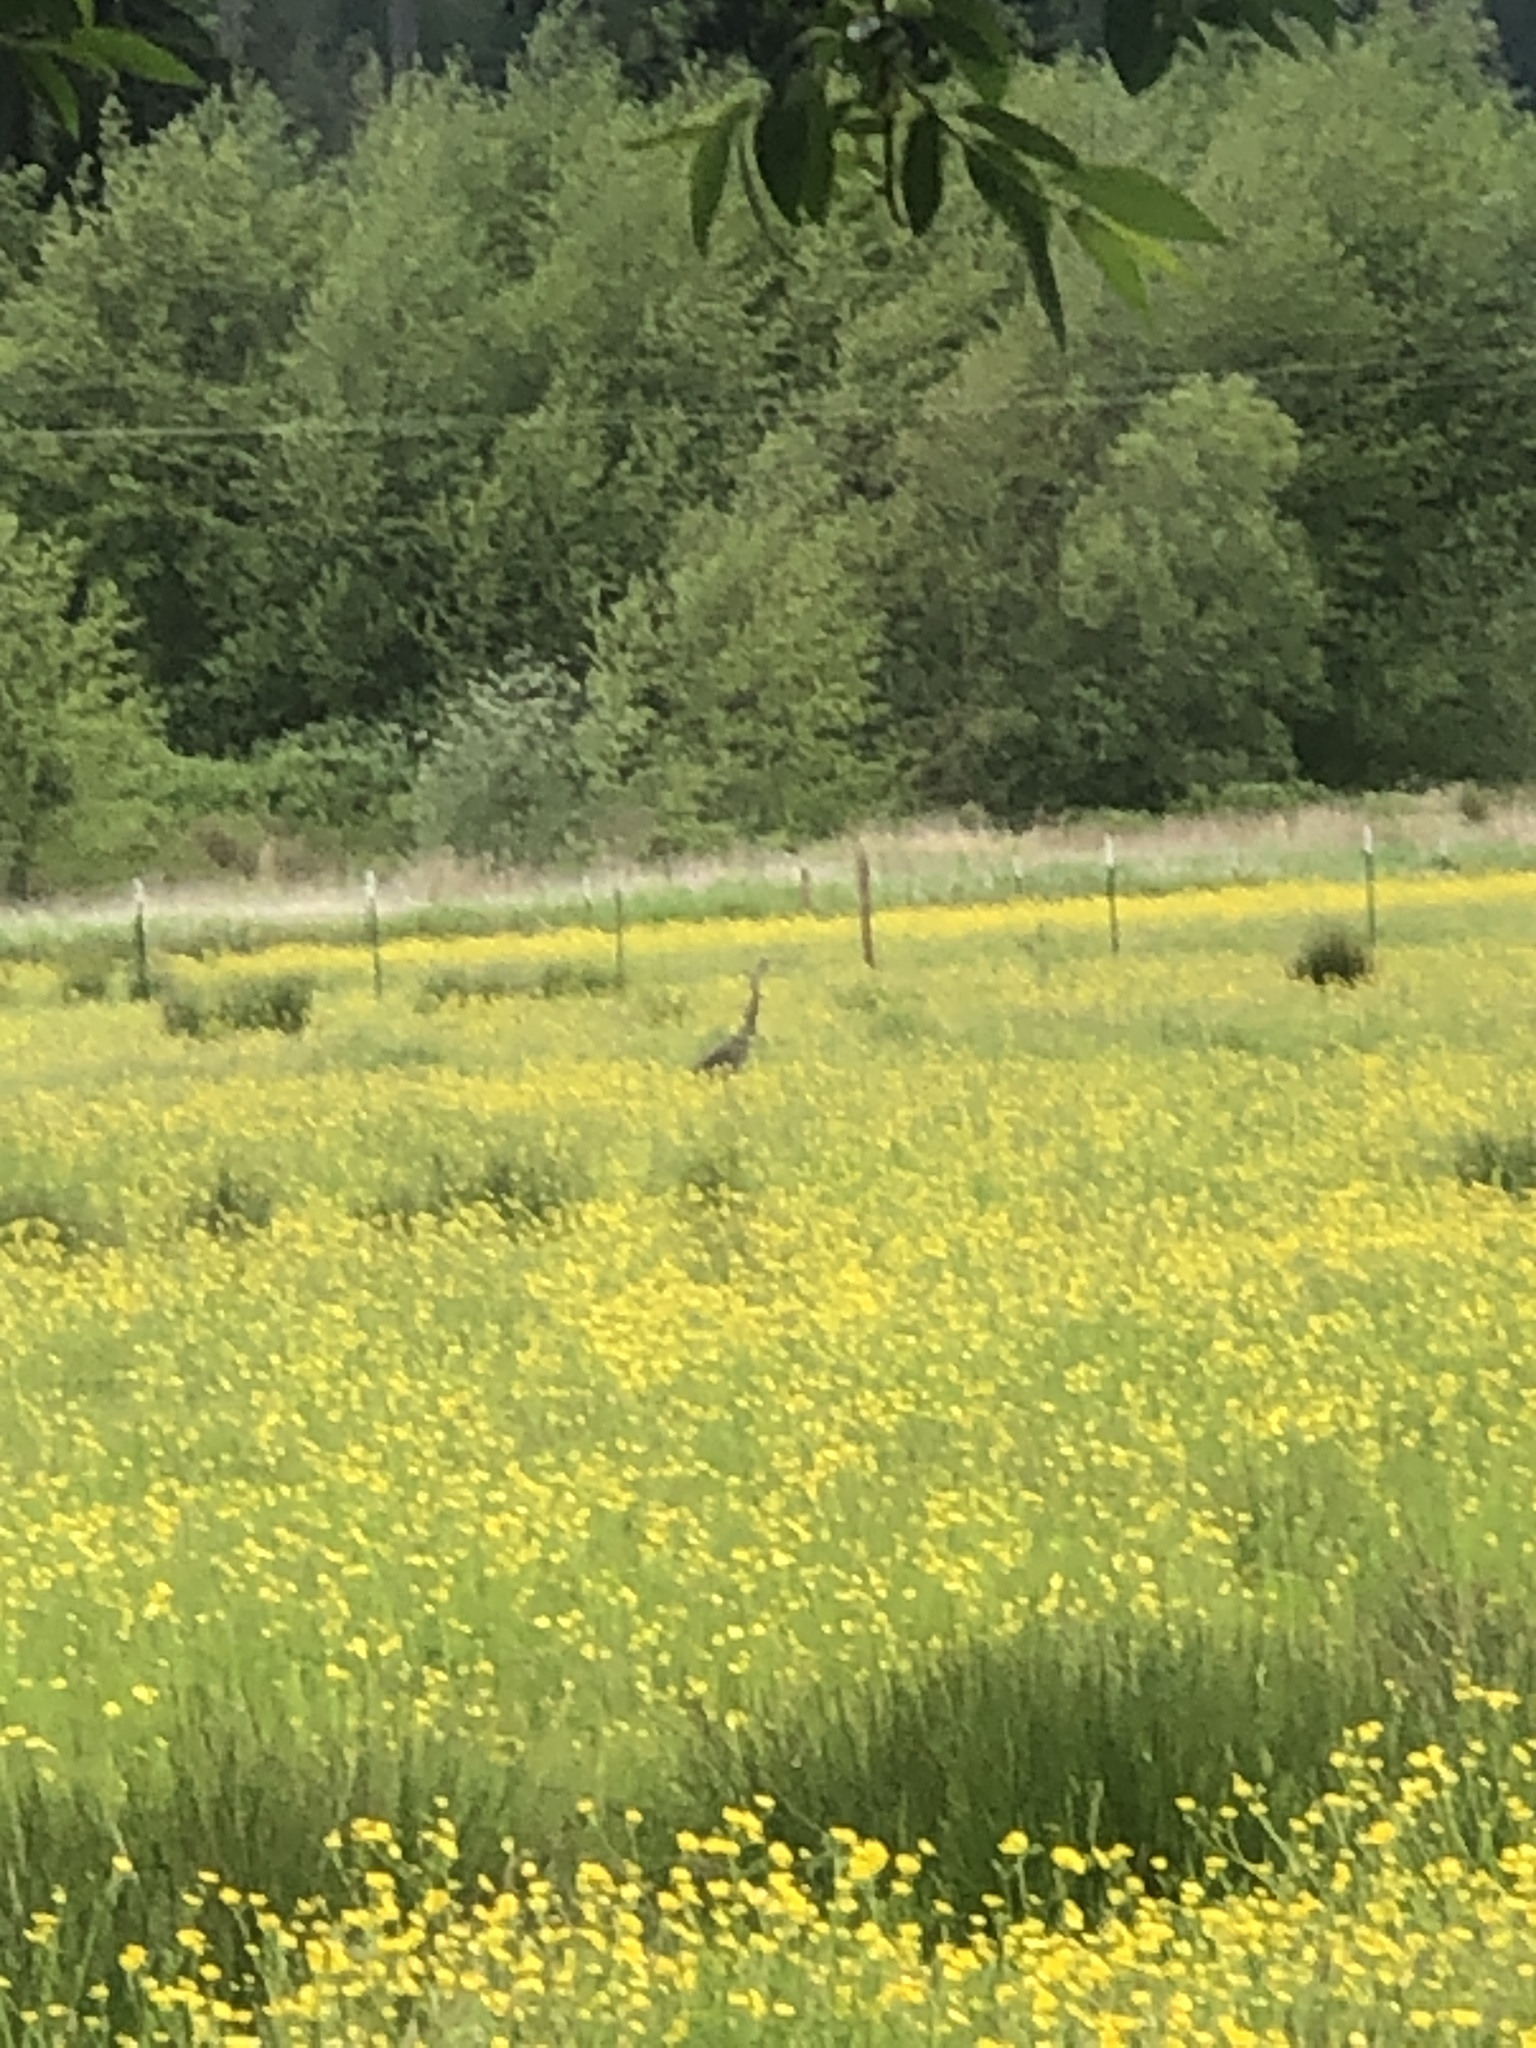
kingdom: Animalia
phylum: Chordata
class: Aves
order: Pelecaniformes
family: Ardeidae
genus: Ardea
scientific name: Ardea herodias
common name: Great blue heron
